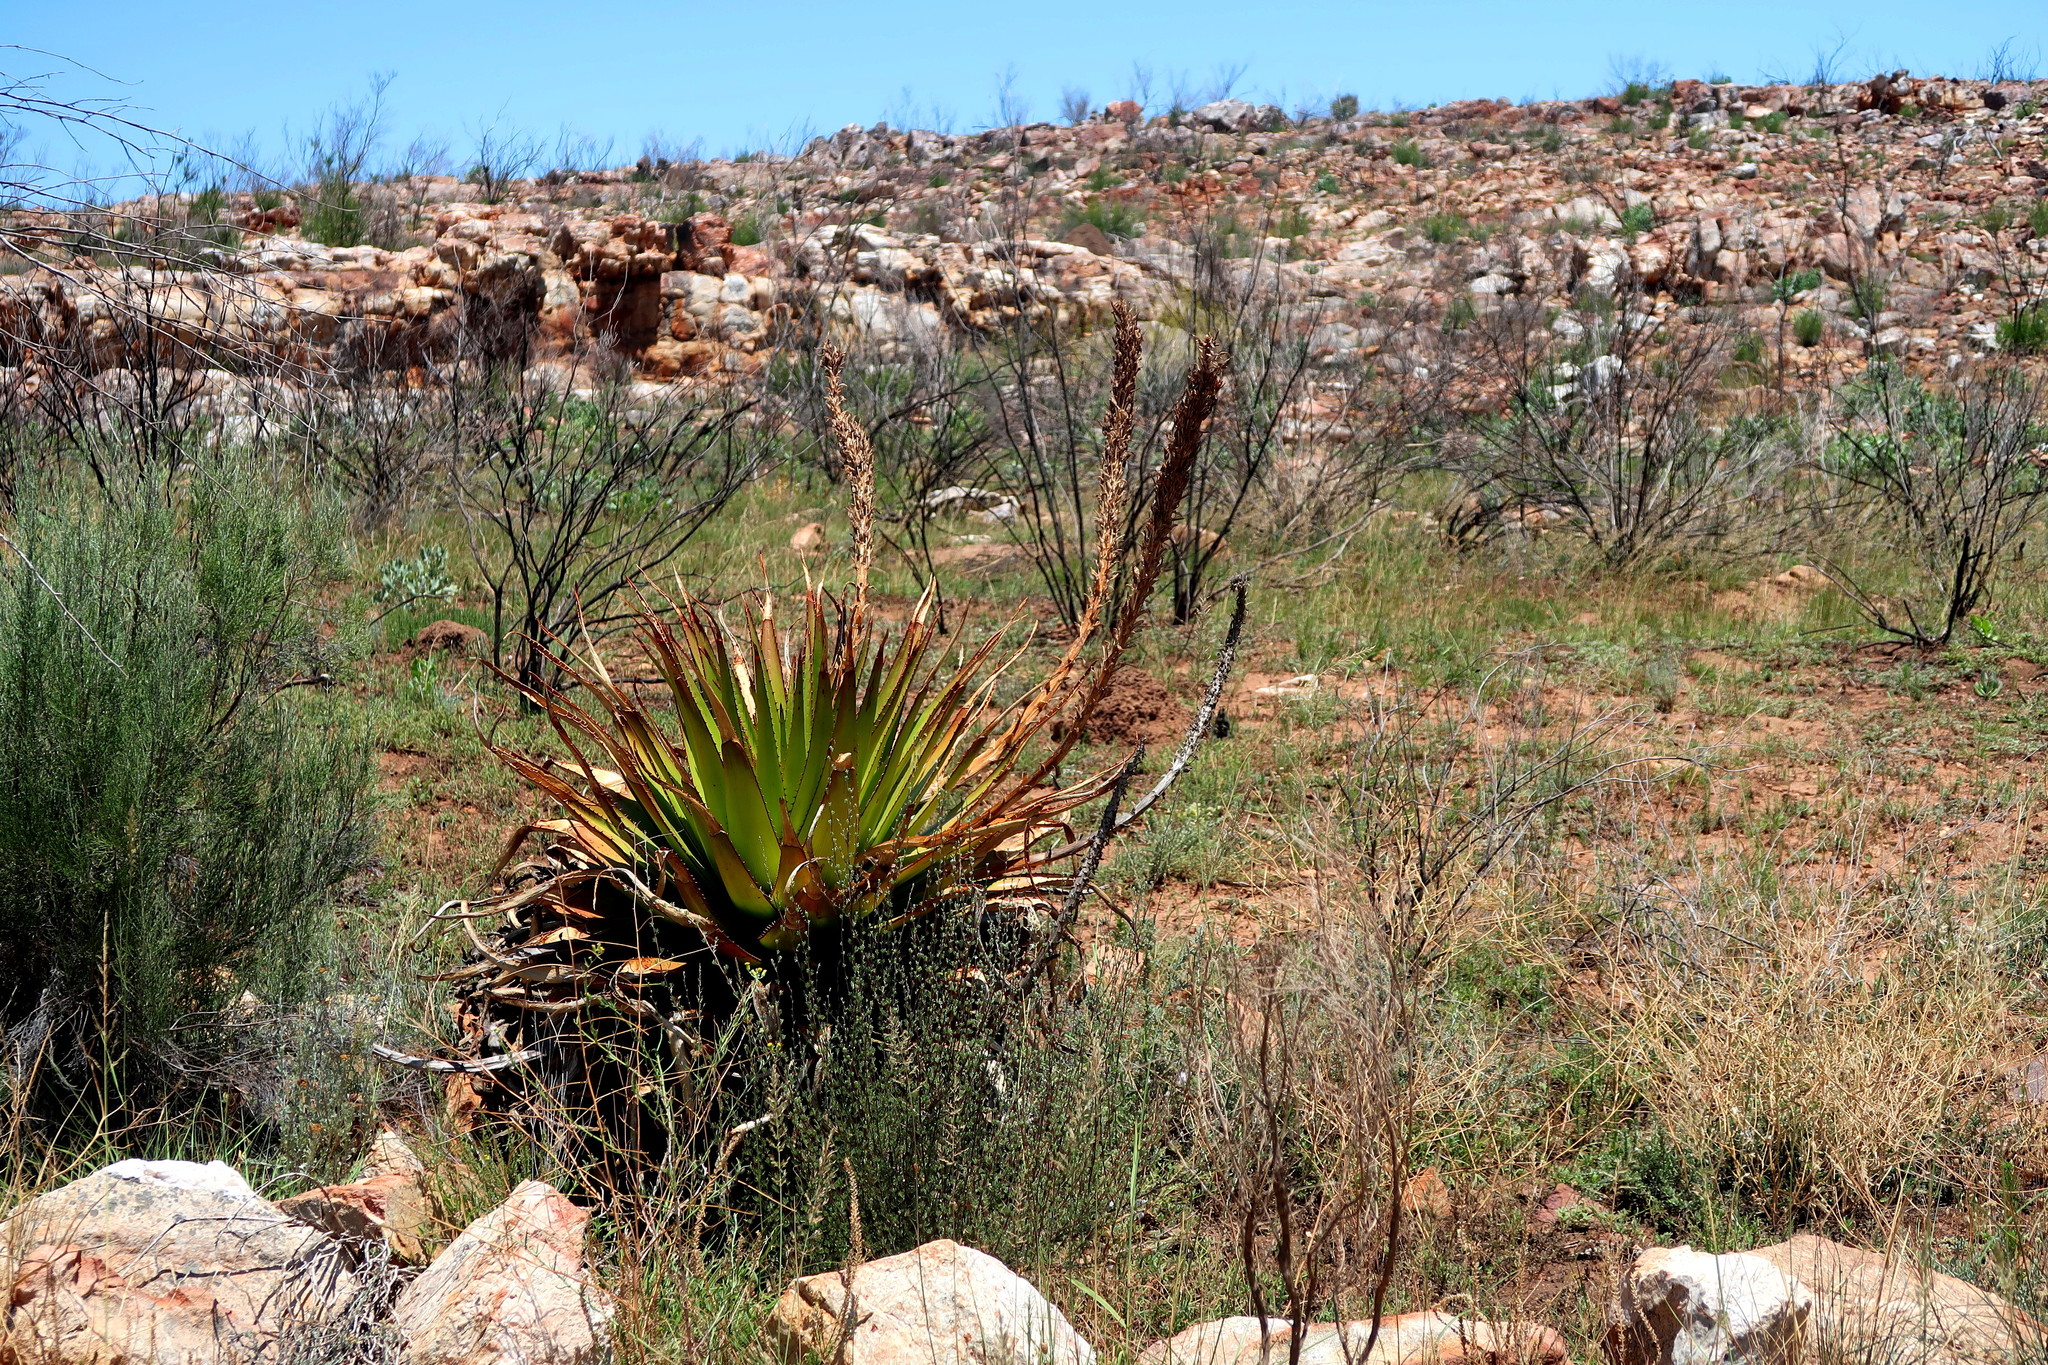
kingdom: Plantae
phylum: Tracheophyta
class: Liliopsida
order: Asparagales
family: Asphodelaceae
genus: Aloe
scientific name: Aloe lineata
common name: Lined red-spined aloe
